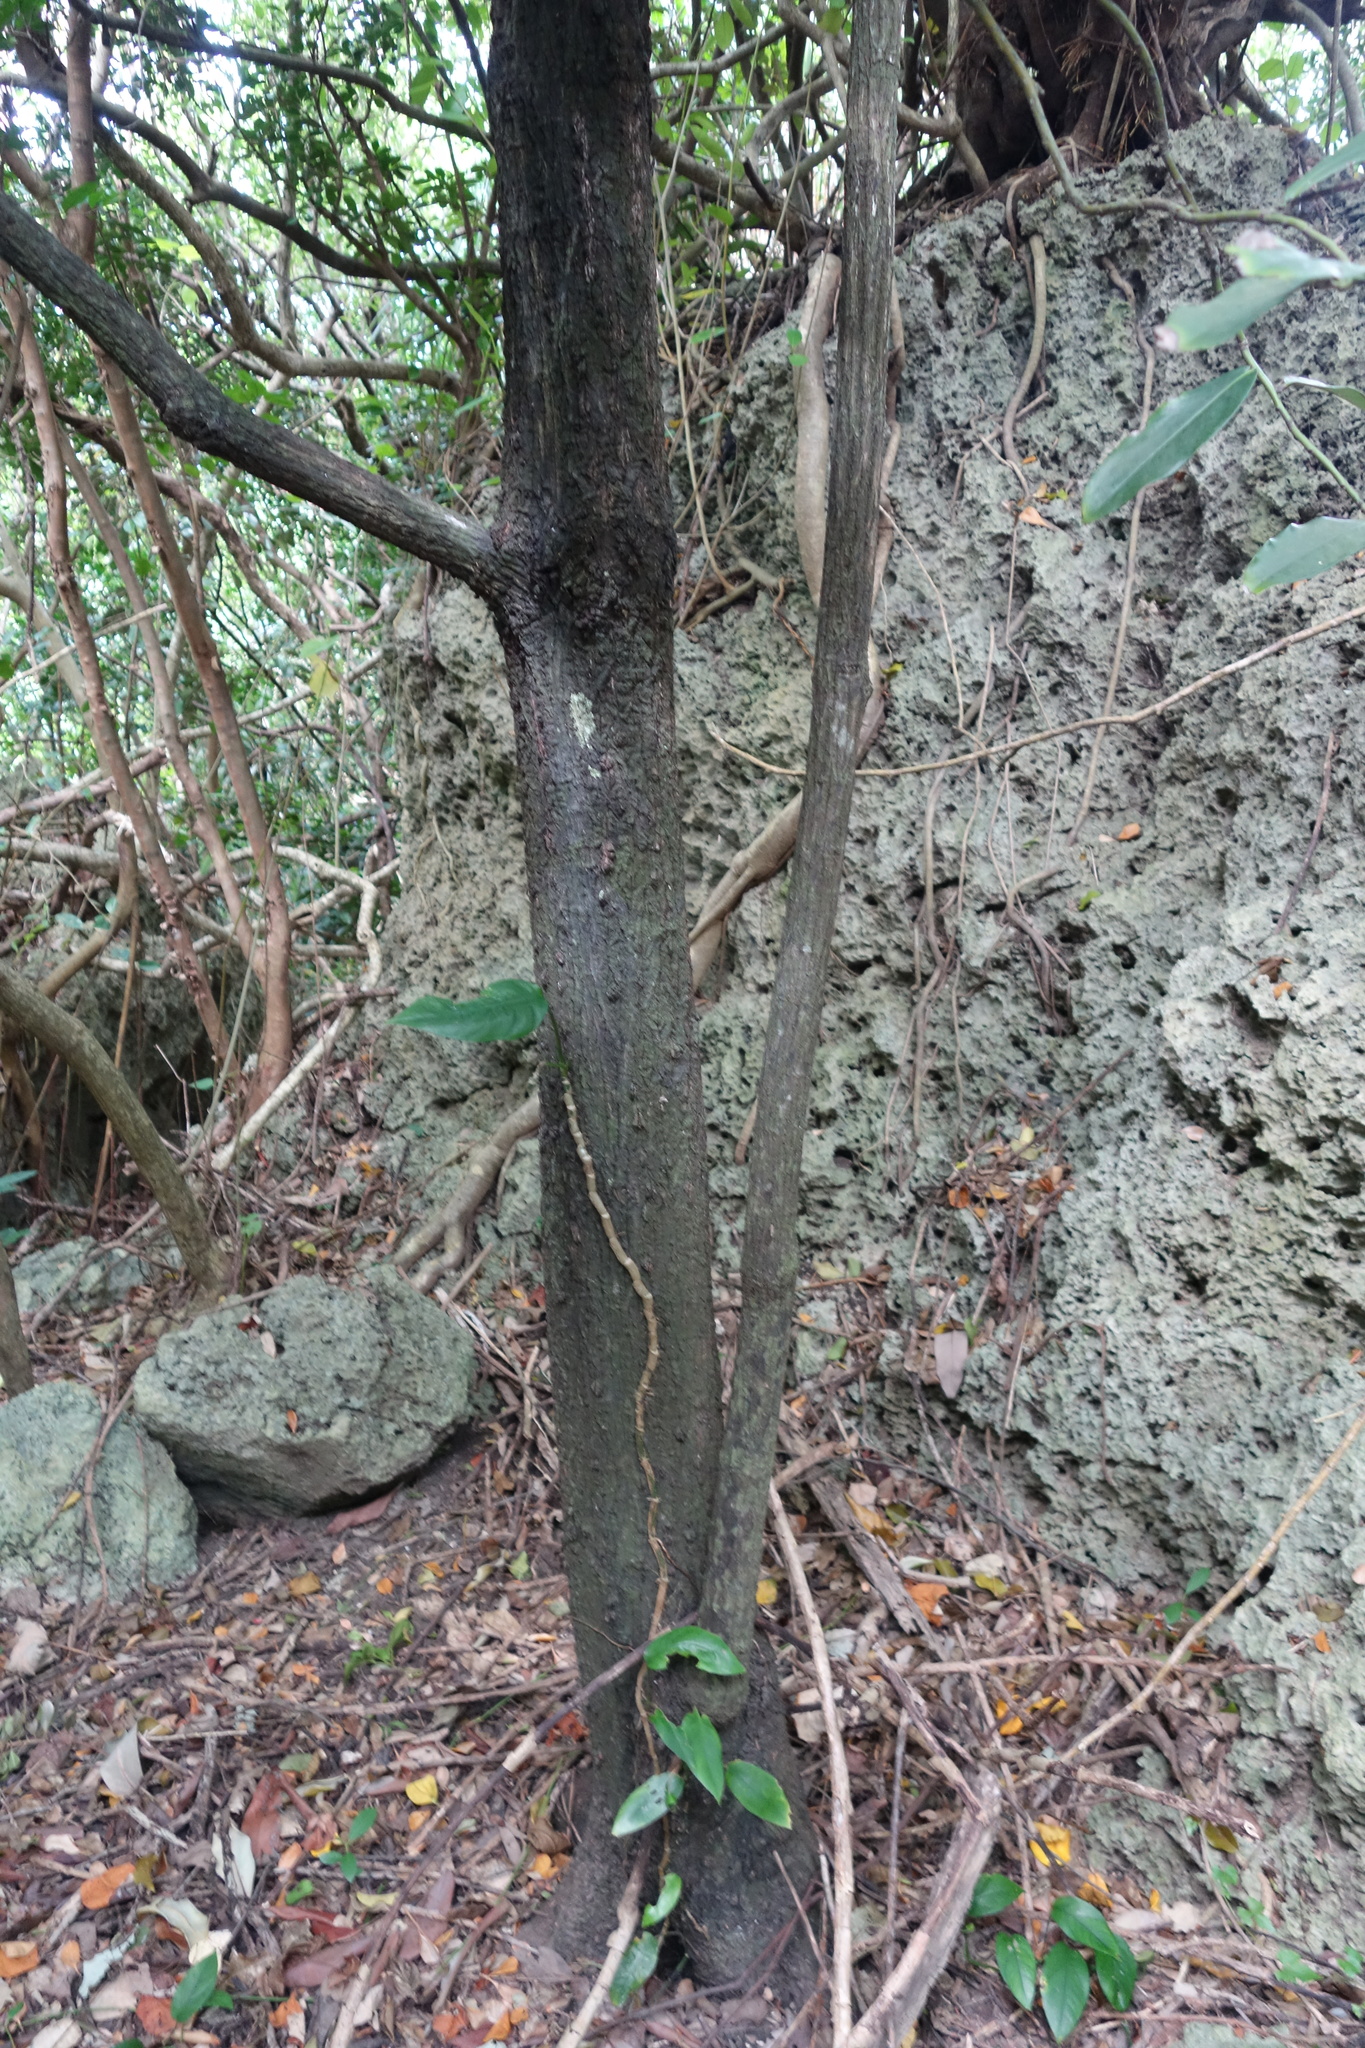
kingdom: Plantae
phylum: Tracheophyta
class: Magnoliopsida
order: Ericales
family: Ebenaceae
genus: Diospyros
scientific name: Diospyros blancoi
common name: Mabola-tree
